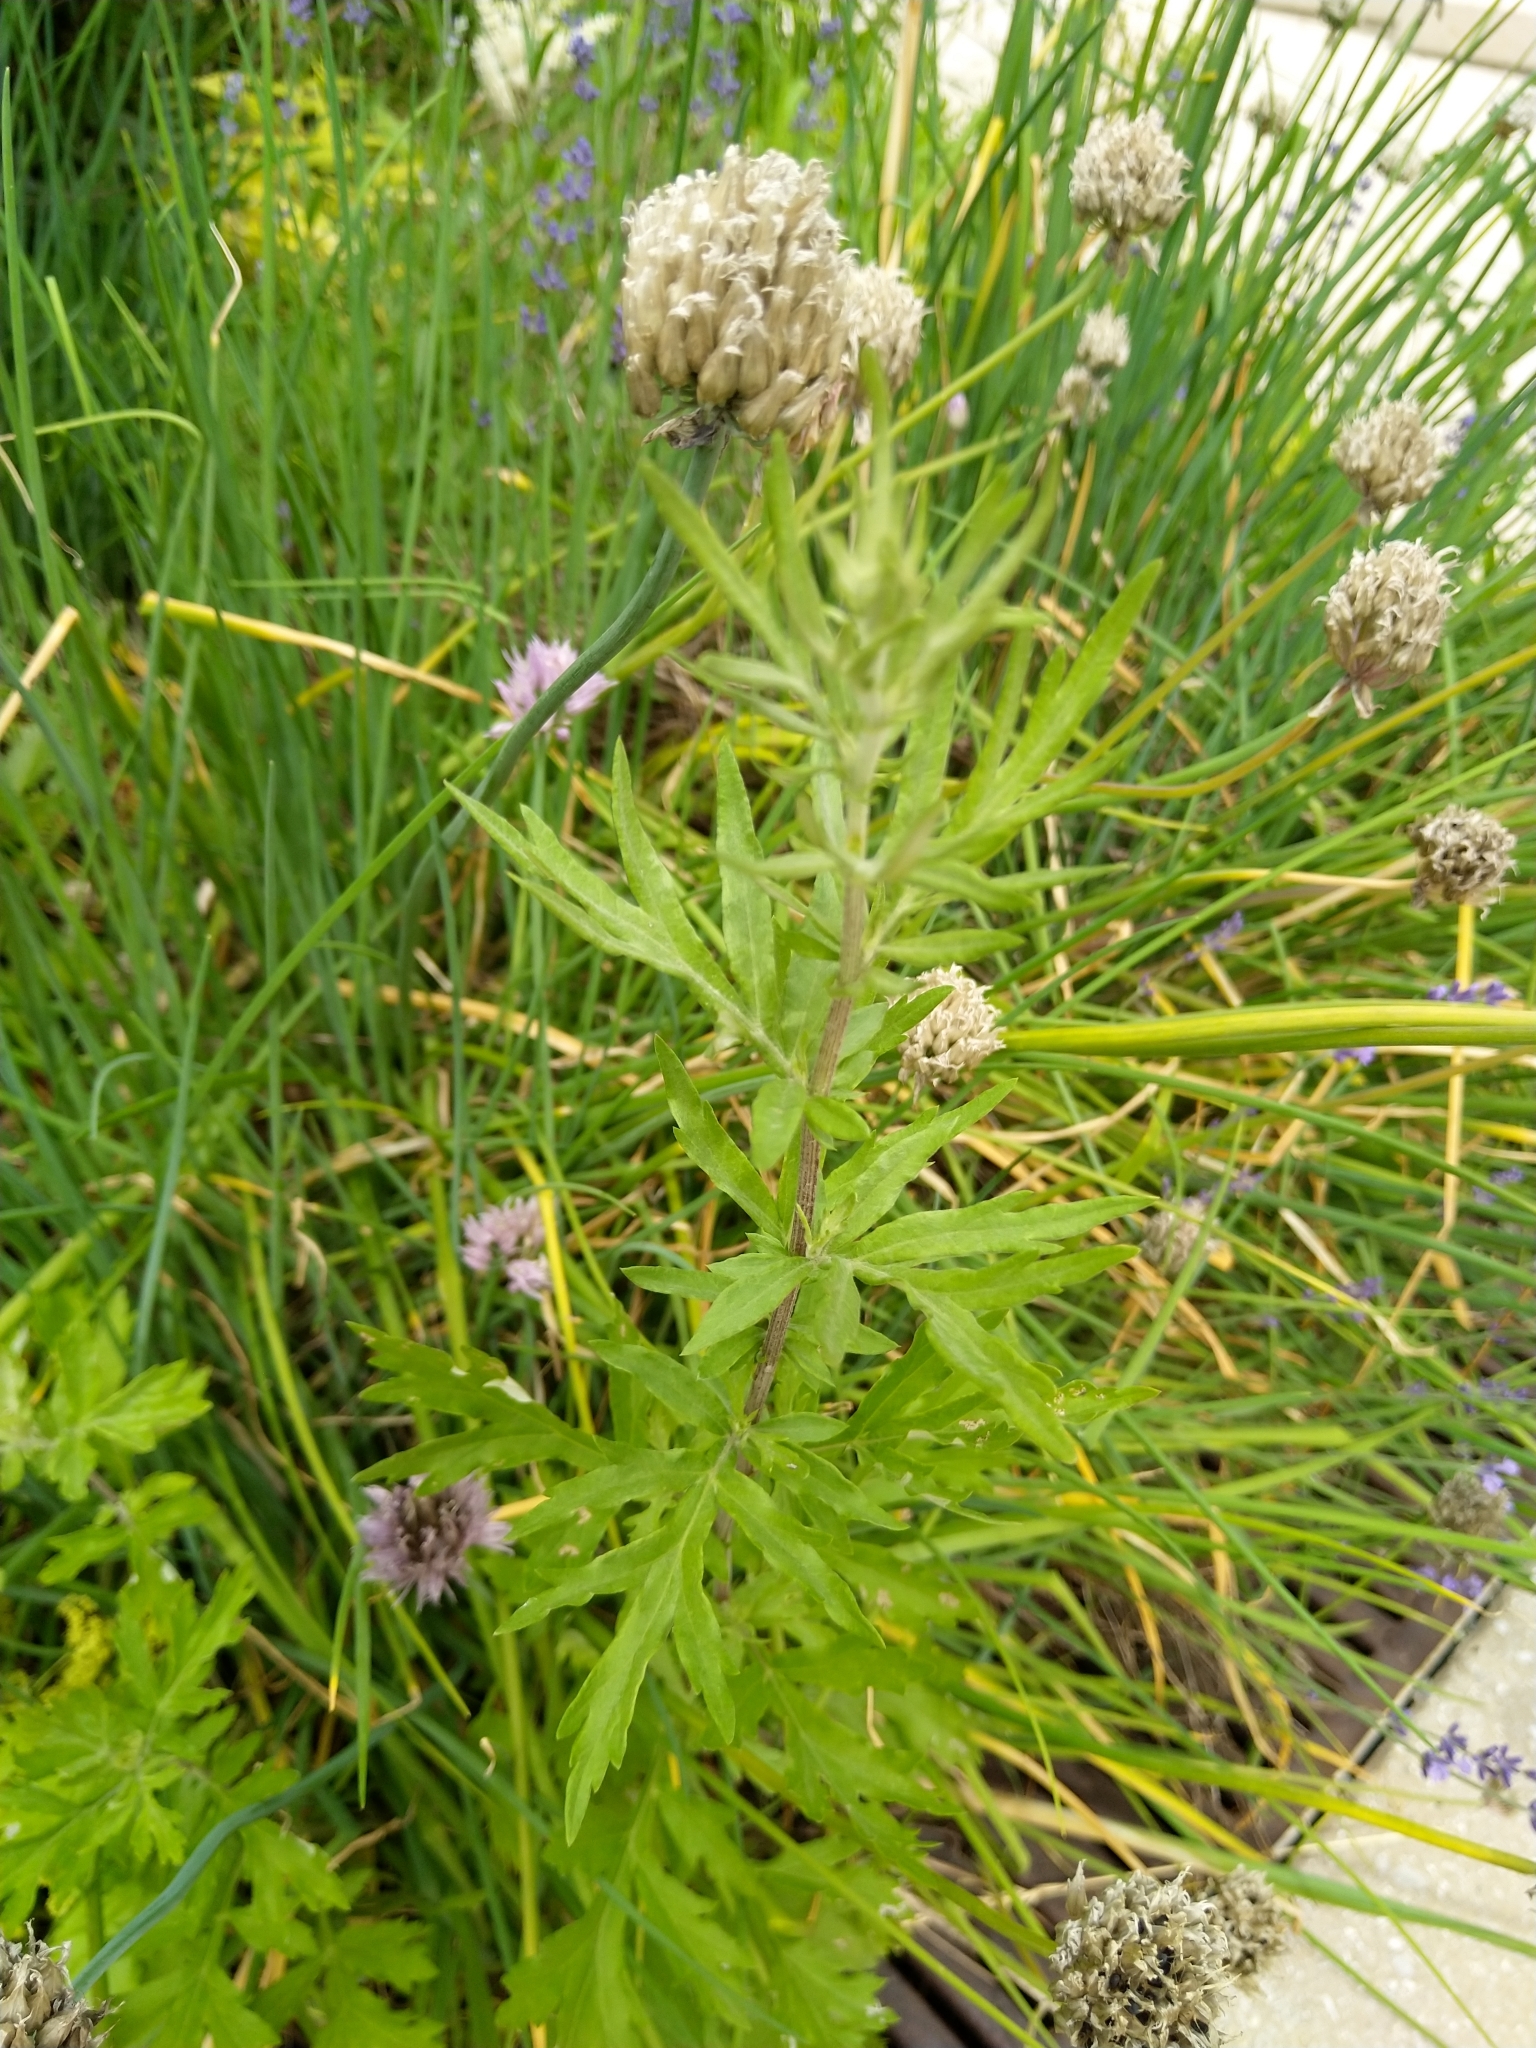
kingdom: Plantae
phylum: Tracheophyta
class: Magnoliopsida
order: Asterales
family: Asteraceae
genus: Artemisia
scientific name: Artemisia vulgaris
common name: Mugwort
